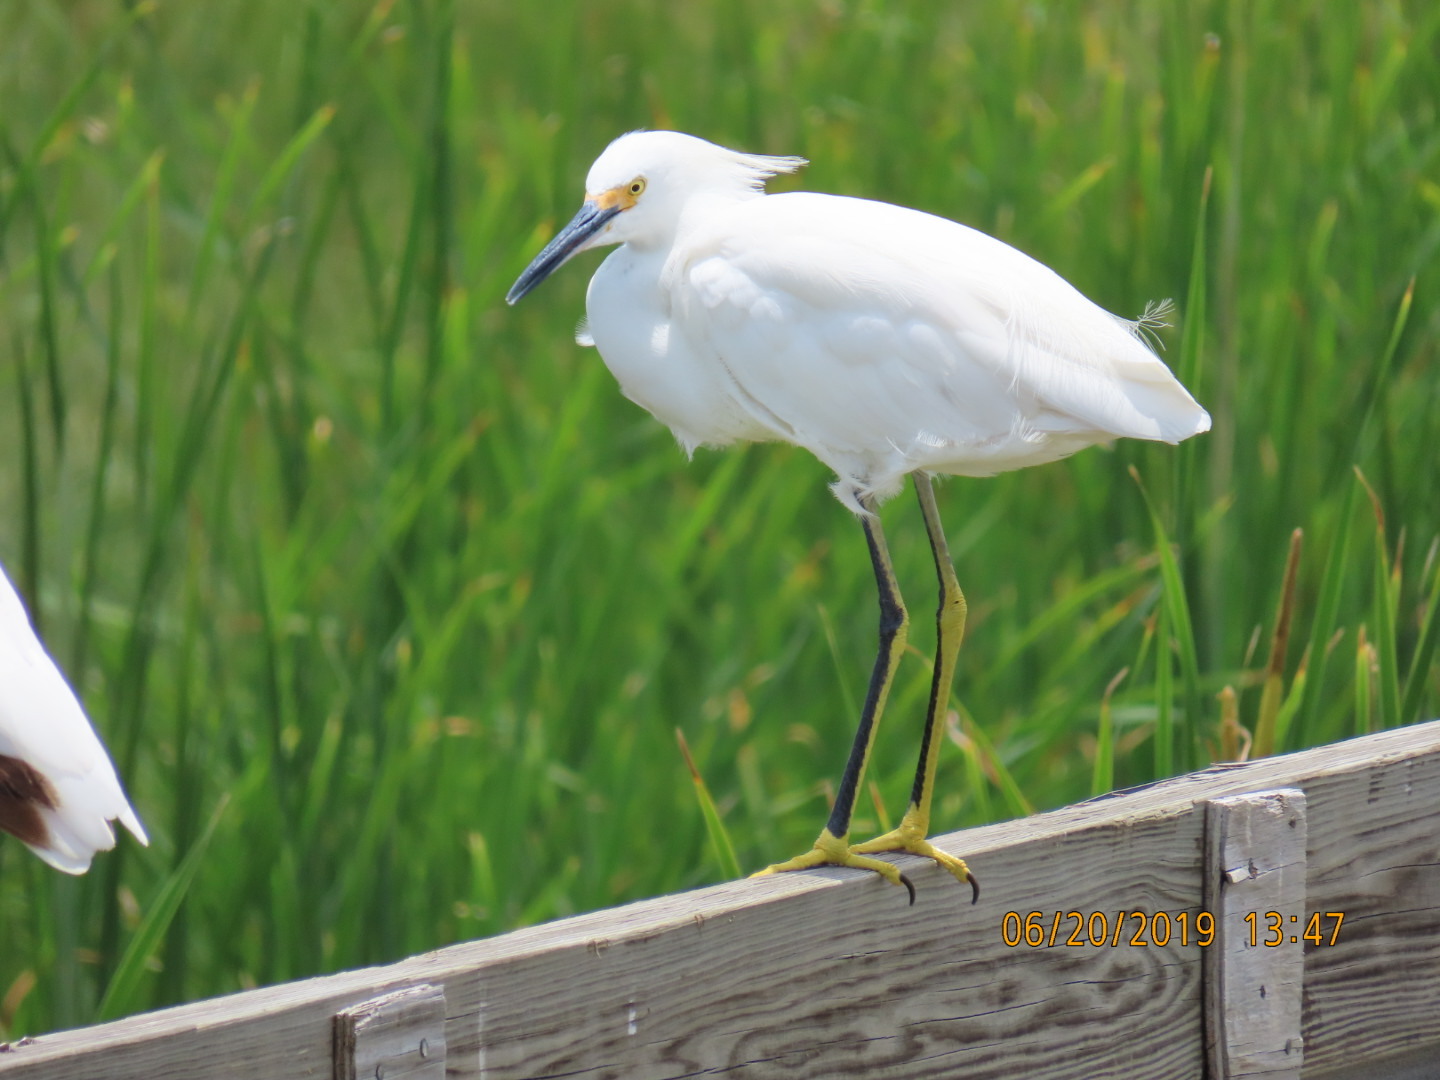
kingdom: Animalia
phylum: Chordata
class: Aves
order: Pelecaniformes
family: Ardeidae
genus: Egretta
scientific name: Egretta thula
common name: Snowy egret
